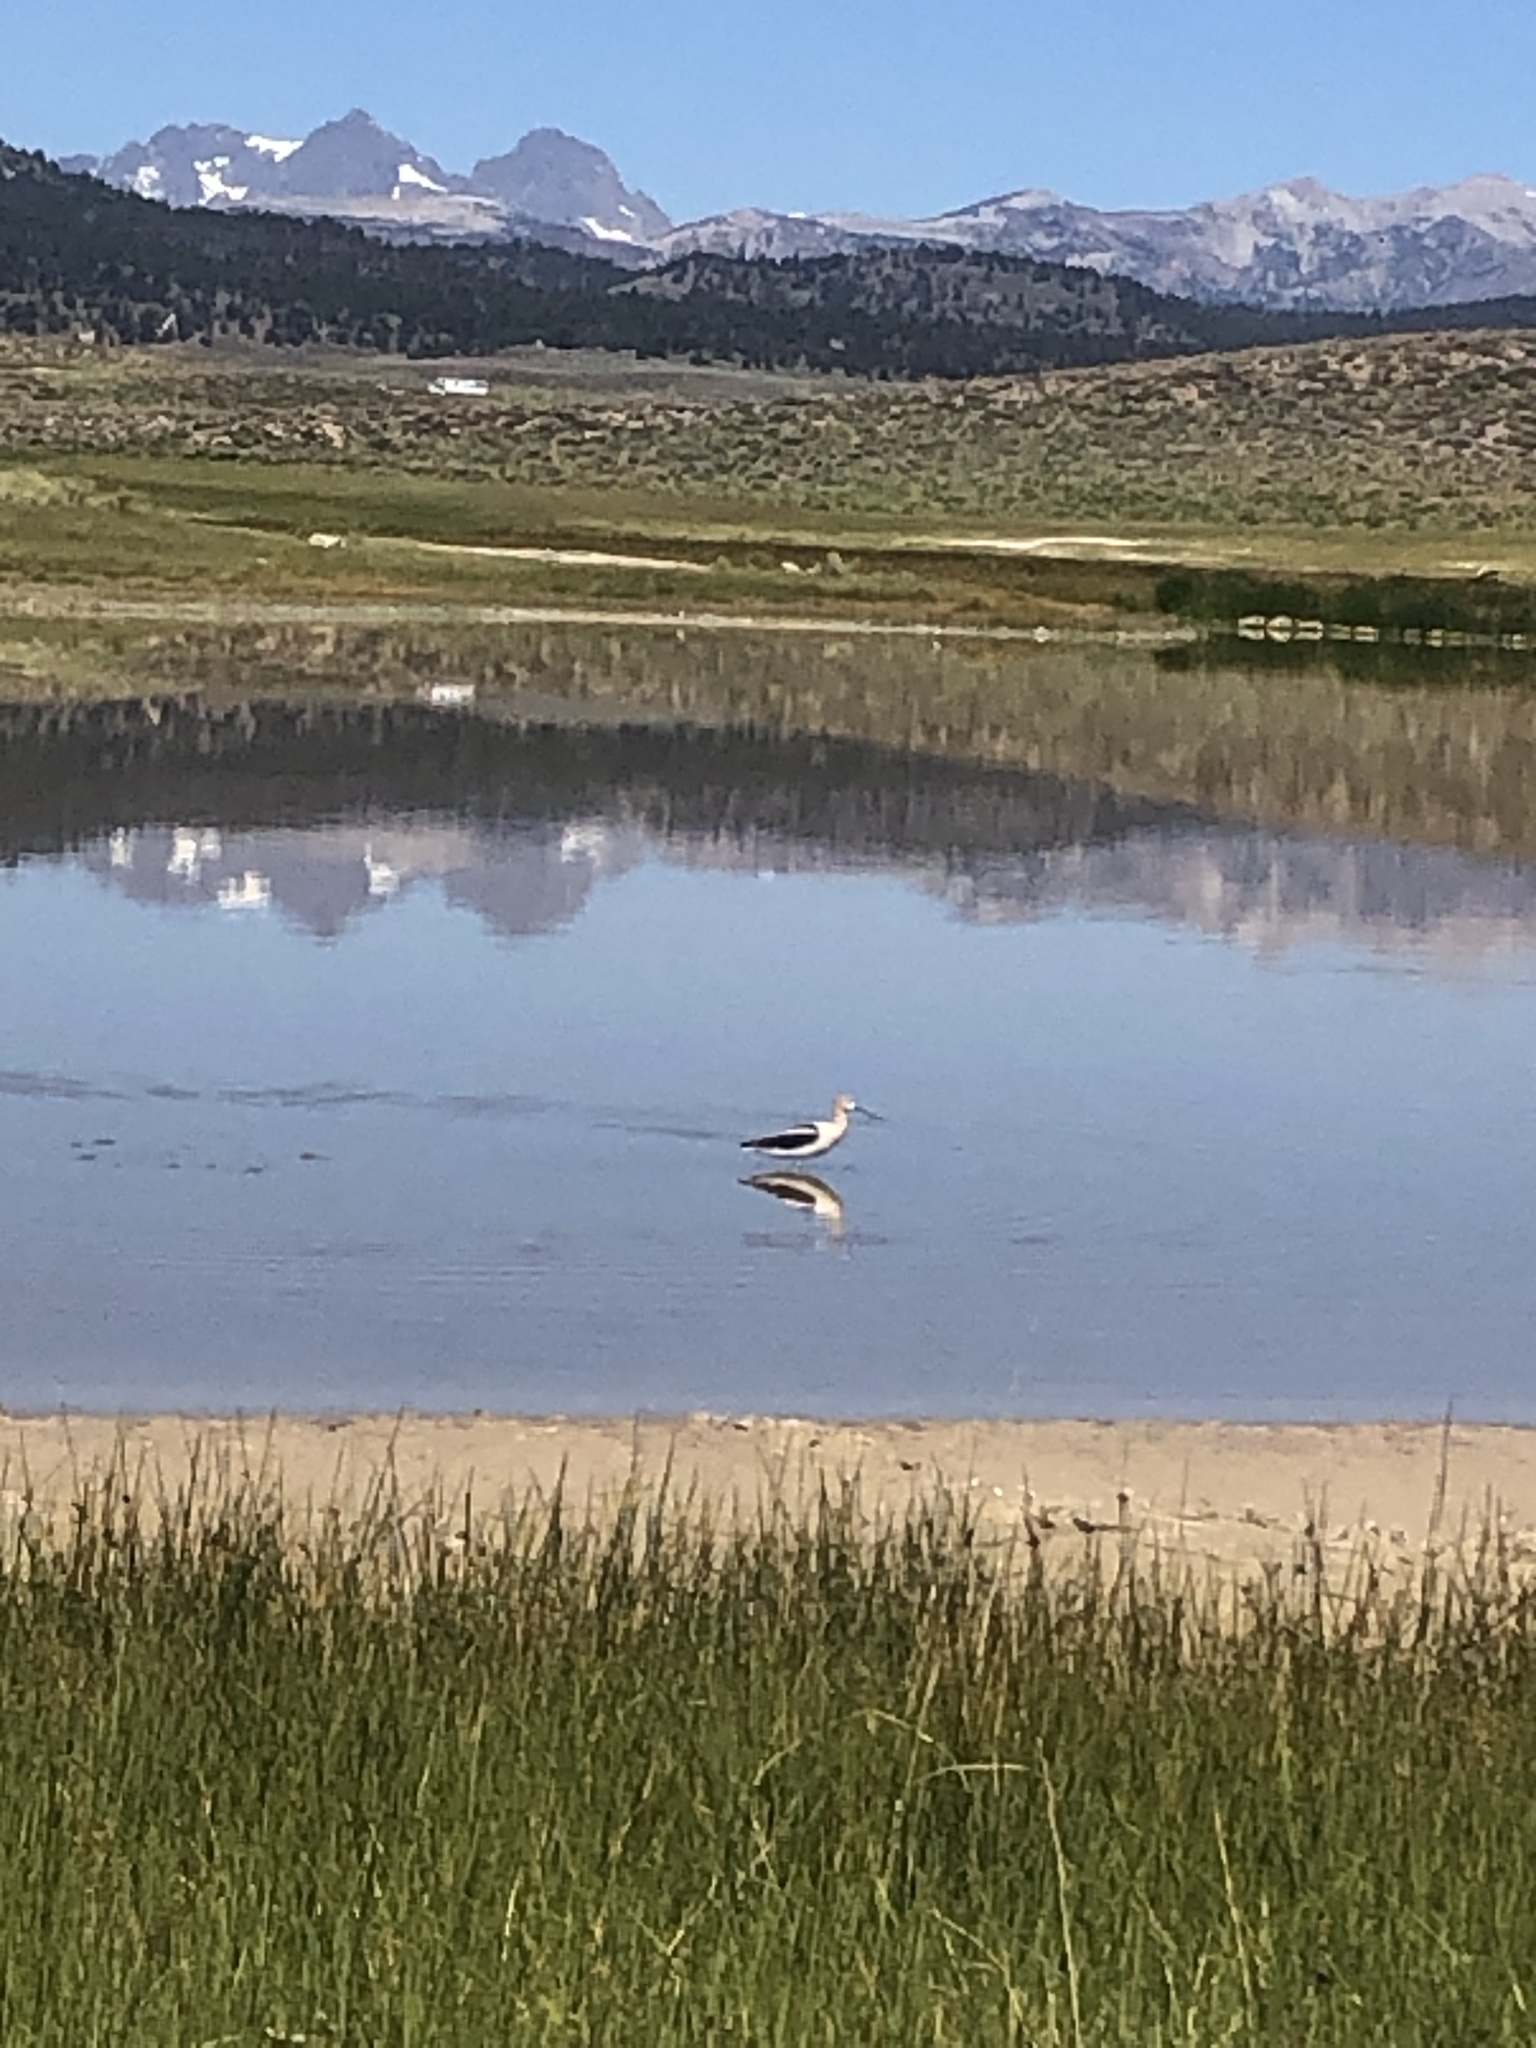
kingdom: Animalia
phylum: Chordata
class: Aves
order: Charadriiformes
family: Recurvirostridae
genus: Recurvirostra
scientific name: Recurvirostra americana
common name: American avocet
